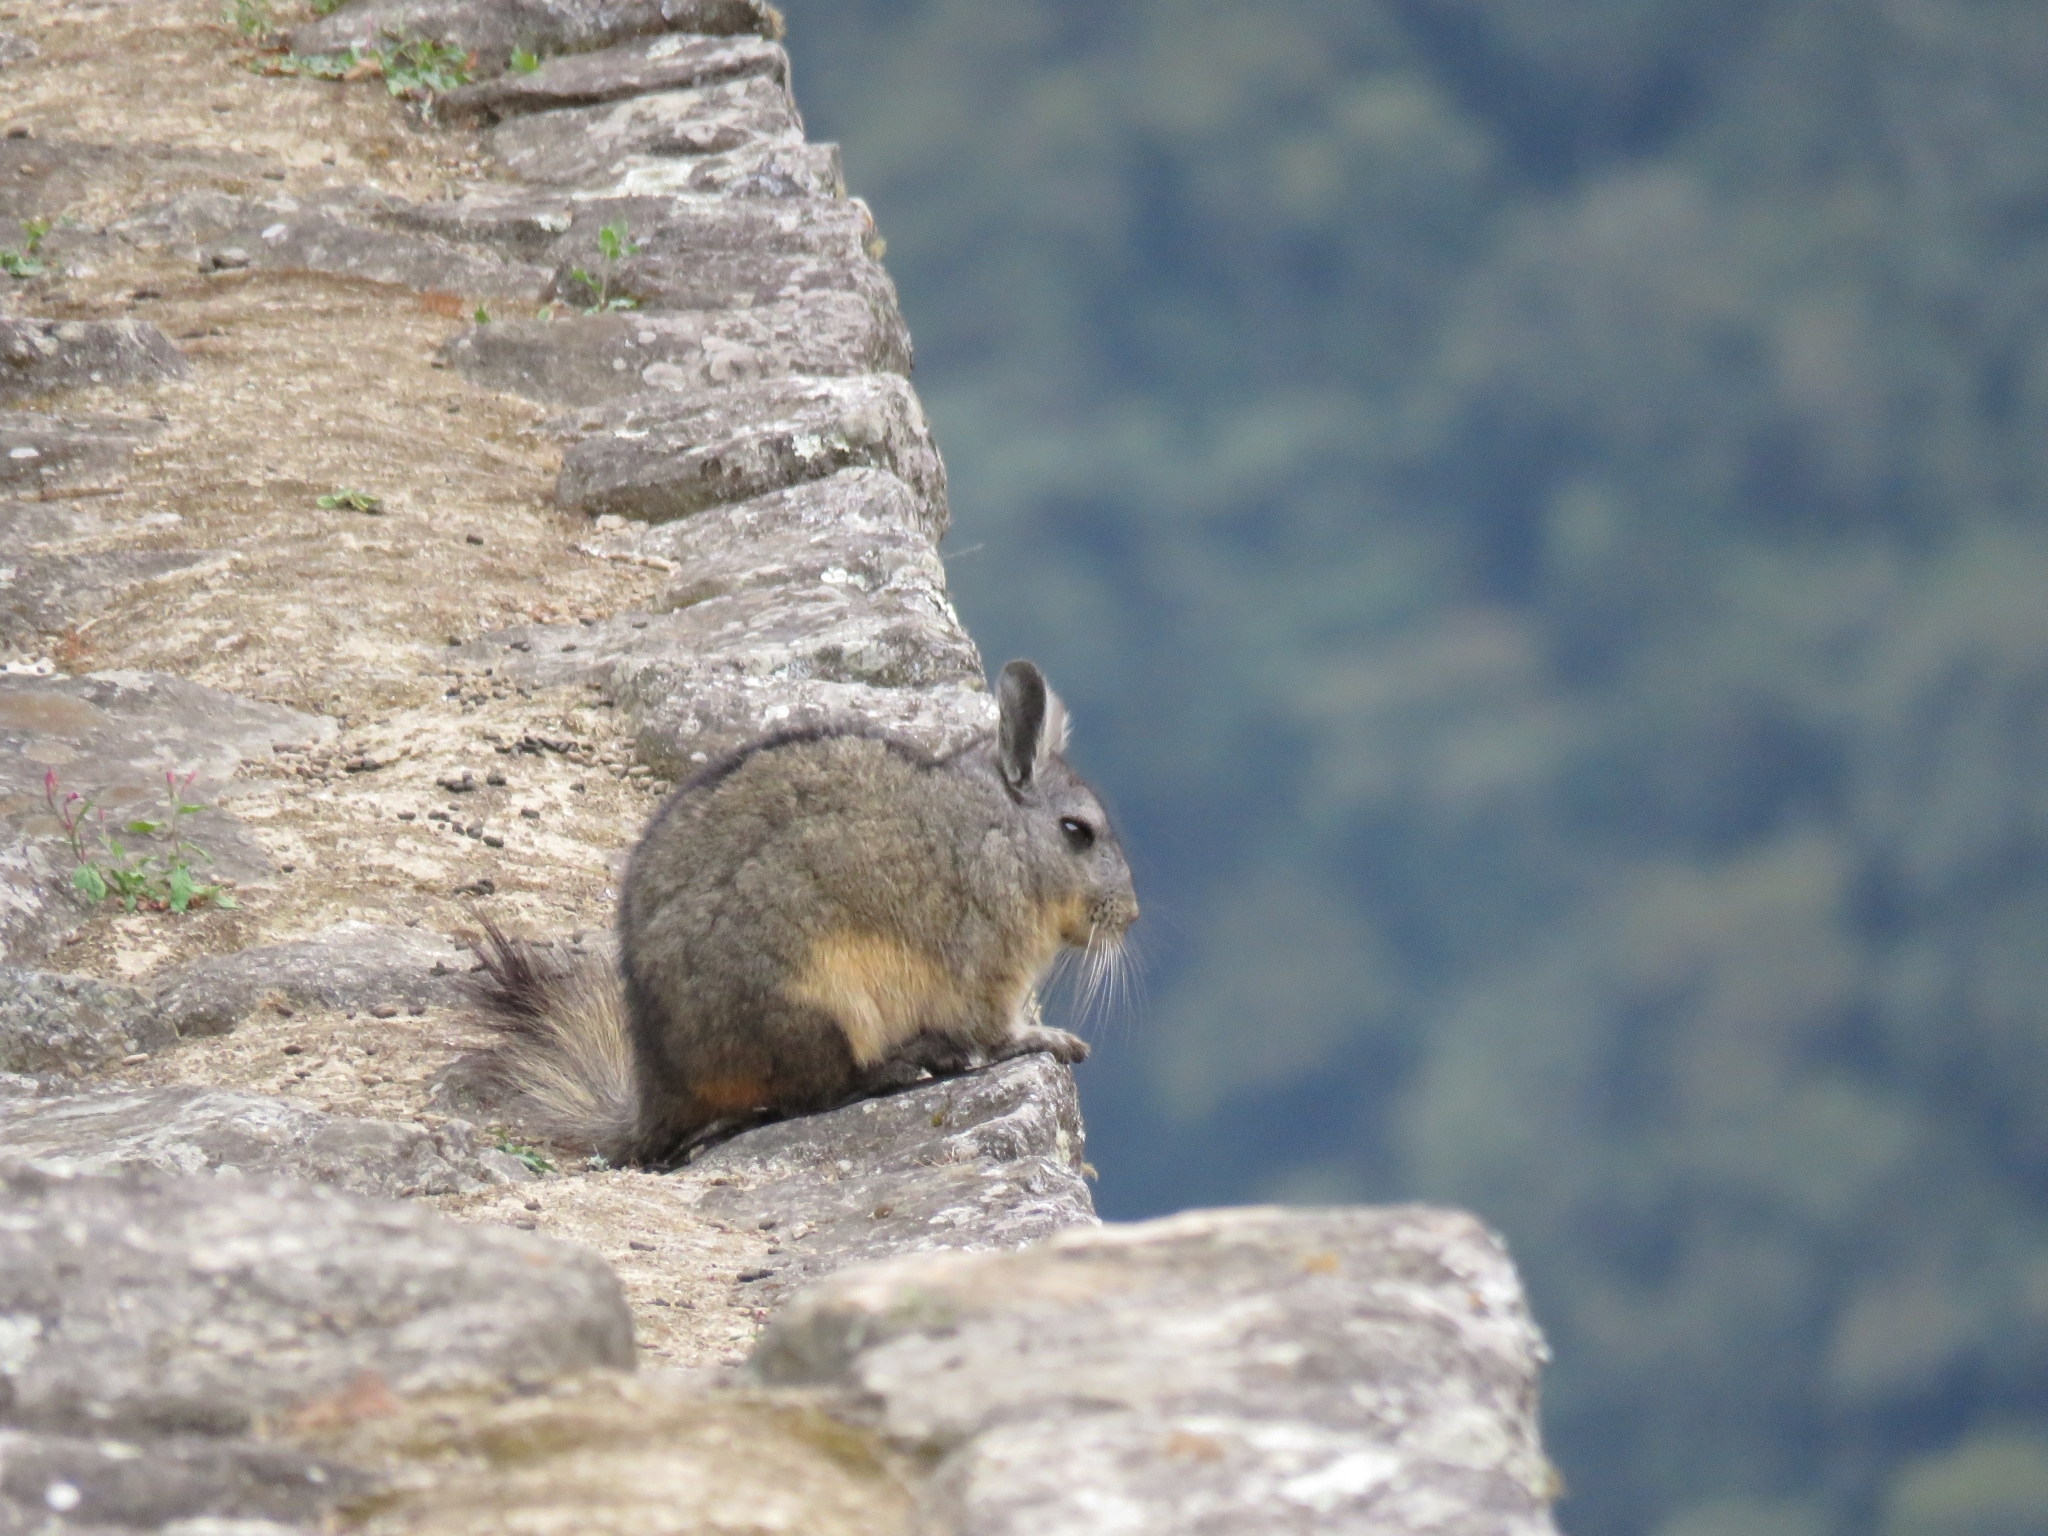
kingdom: Animalia
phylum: Chordata
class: Mammalia
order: Rodentia
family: Chinchillidae
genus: Lagidium
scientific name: Lagidium viscacia
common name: Southern viscacha
